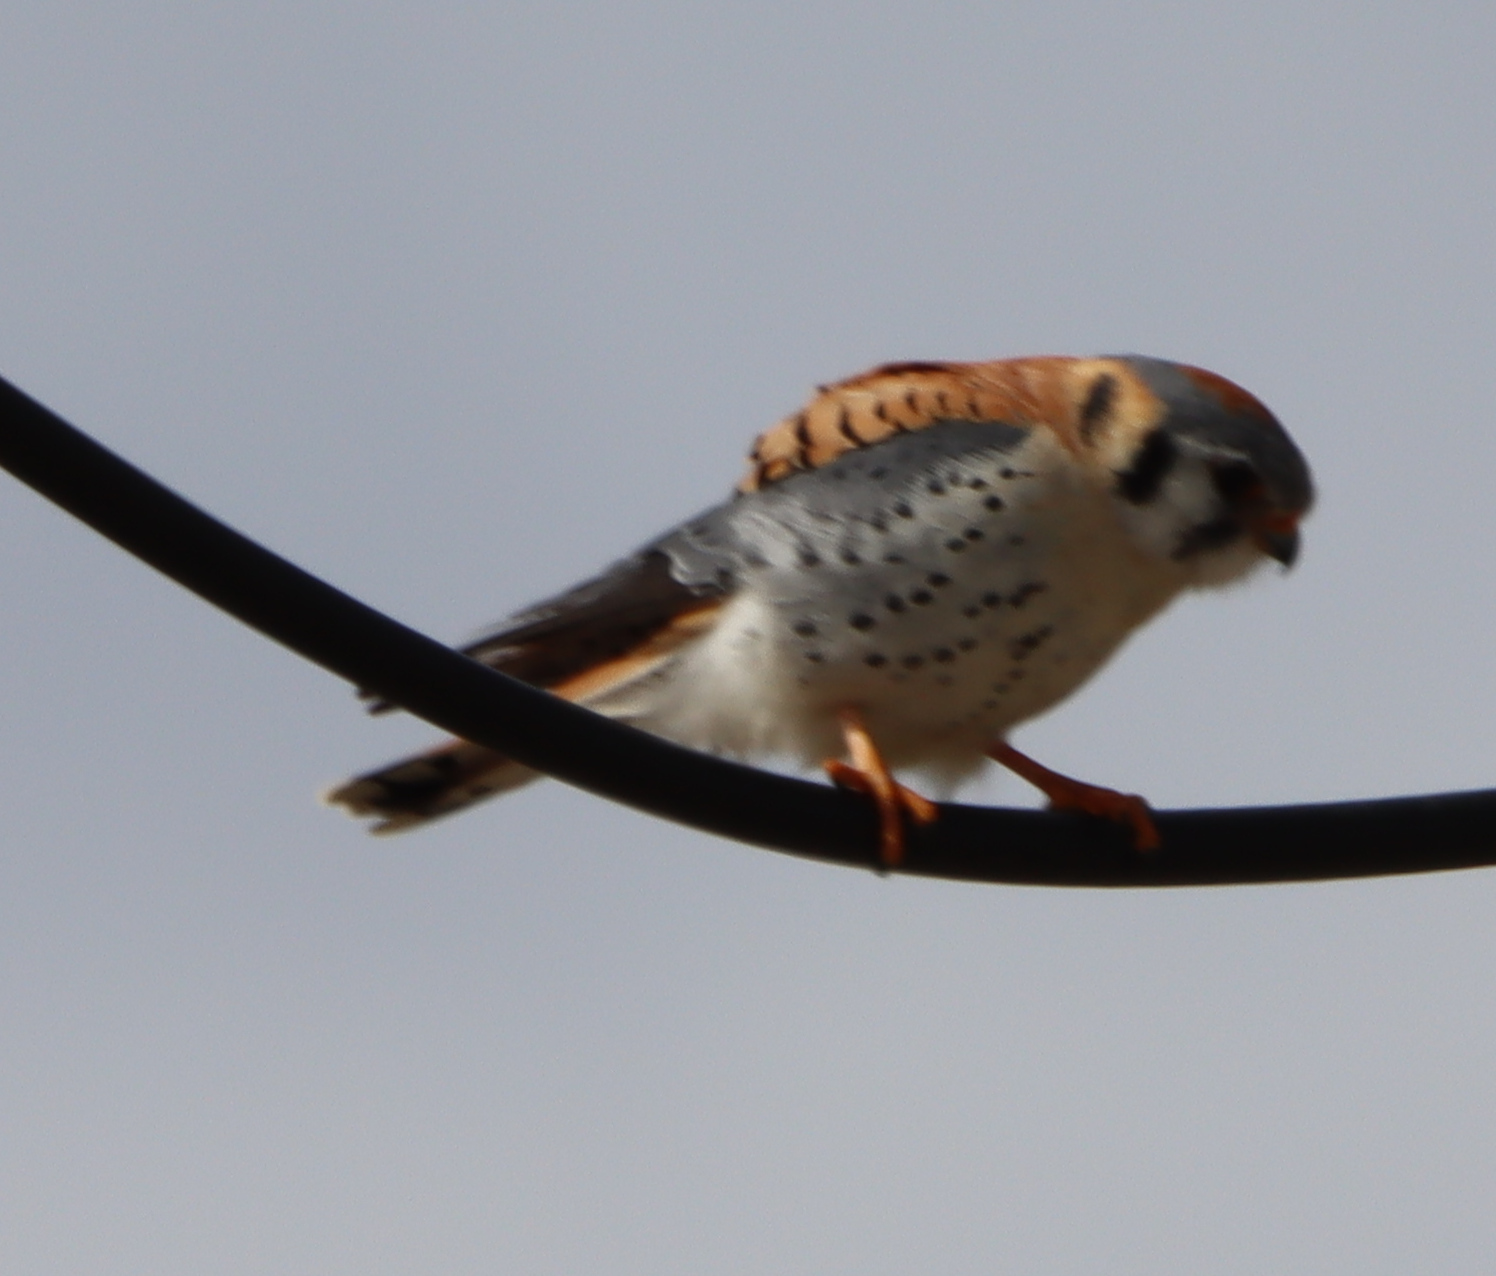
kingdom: Animalia
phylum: Chordata
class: Aves
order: Falconiformes
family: Falconidae
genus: Falco
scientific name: Falco sparverius
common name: American kestrel
